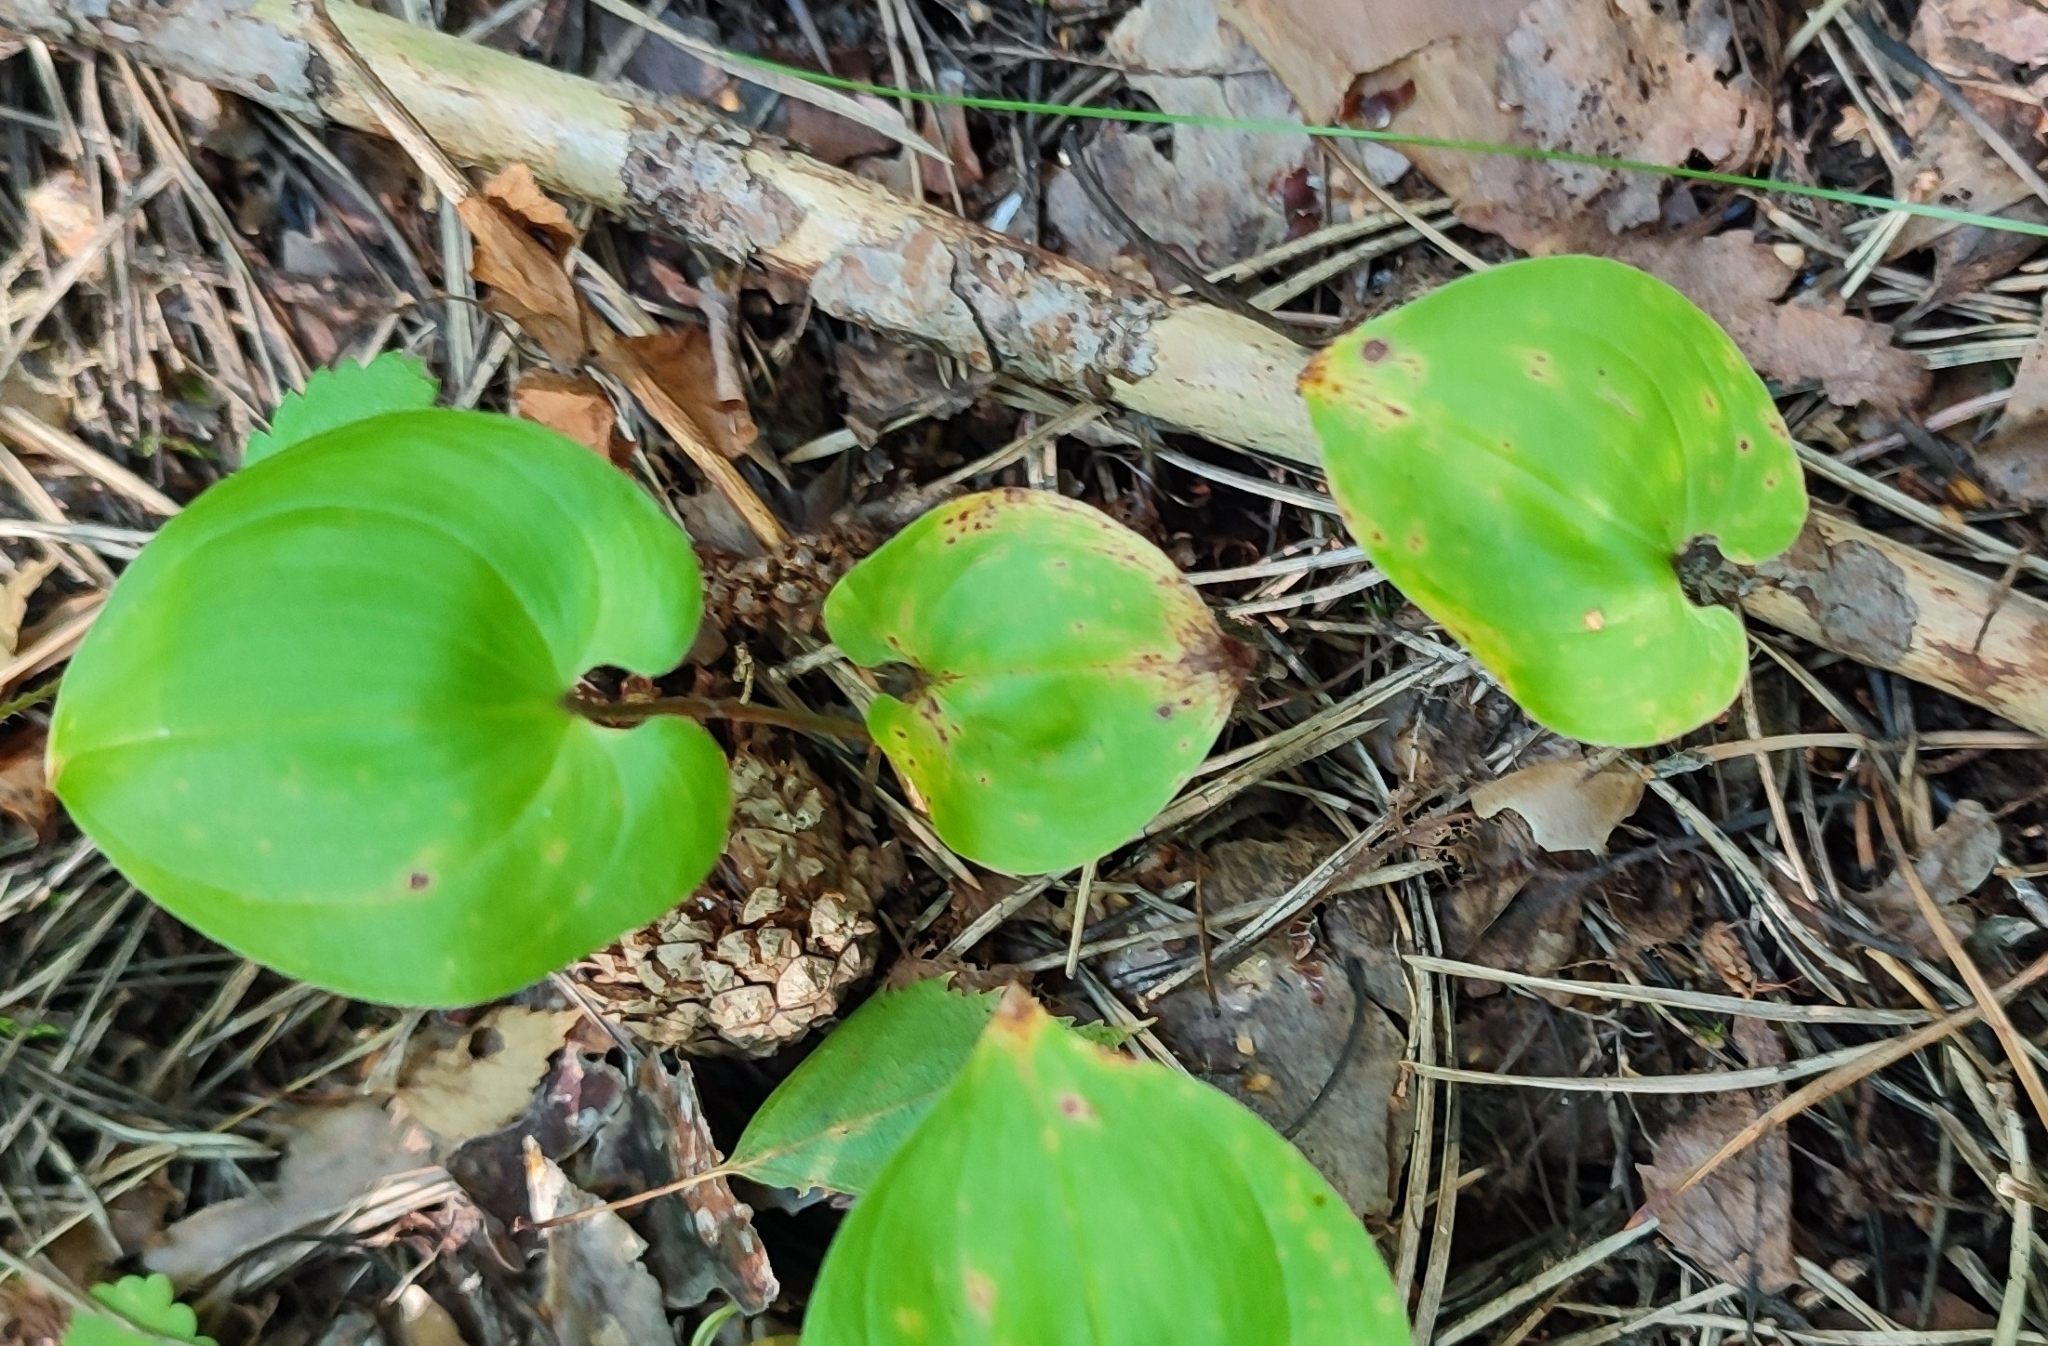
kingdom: Plantae
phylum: Tracheophyta
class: Liliopsida
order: Asparagales
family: Asparagaceae
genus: Maianthemum
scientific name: Maianthemum bifolium
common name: May lily
